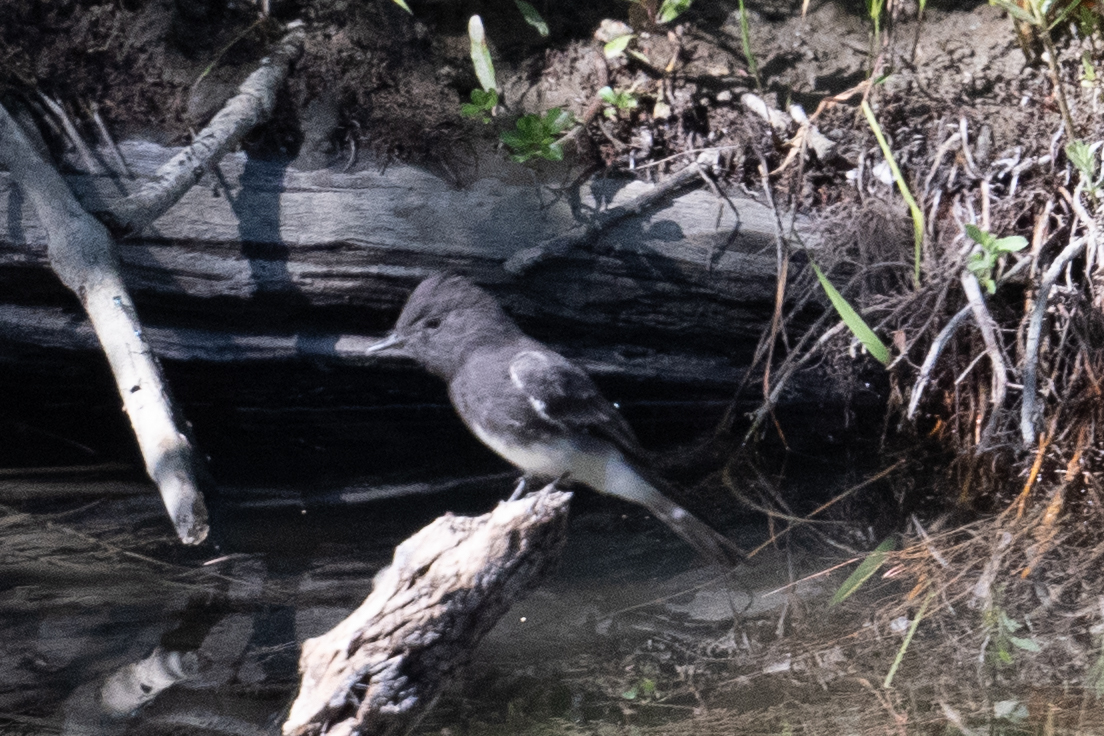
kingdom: Animalia
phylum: Chordata
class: Aves
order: Passeriformes
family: Tyrannidae
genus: Sayornis
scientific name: Sayornis nigricans
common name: Black phoebe
